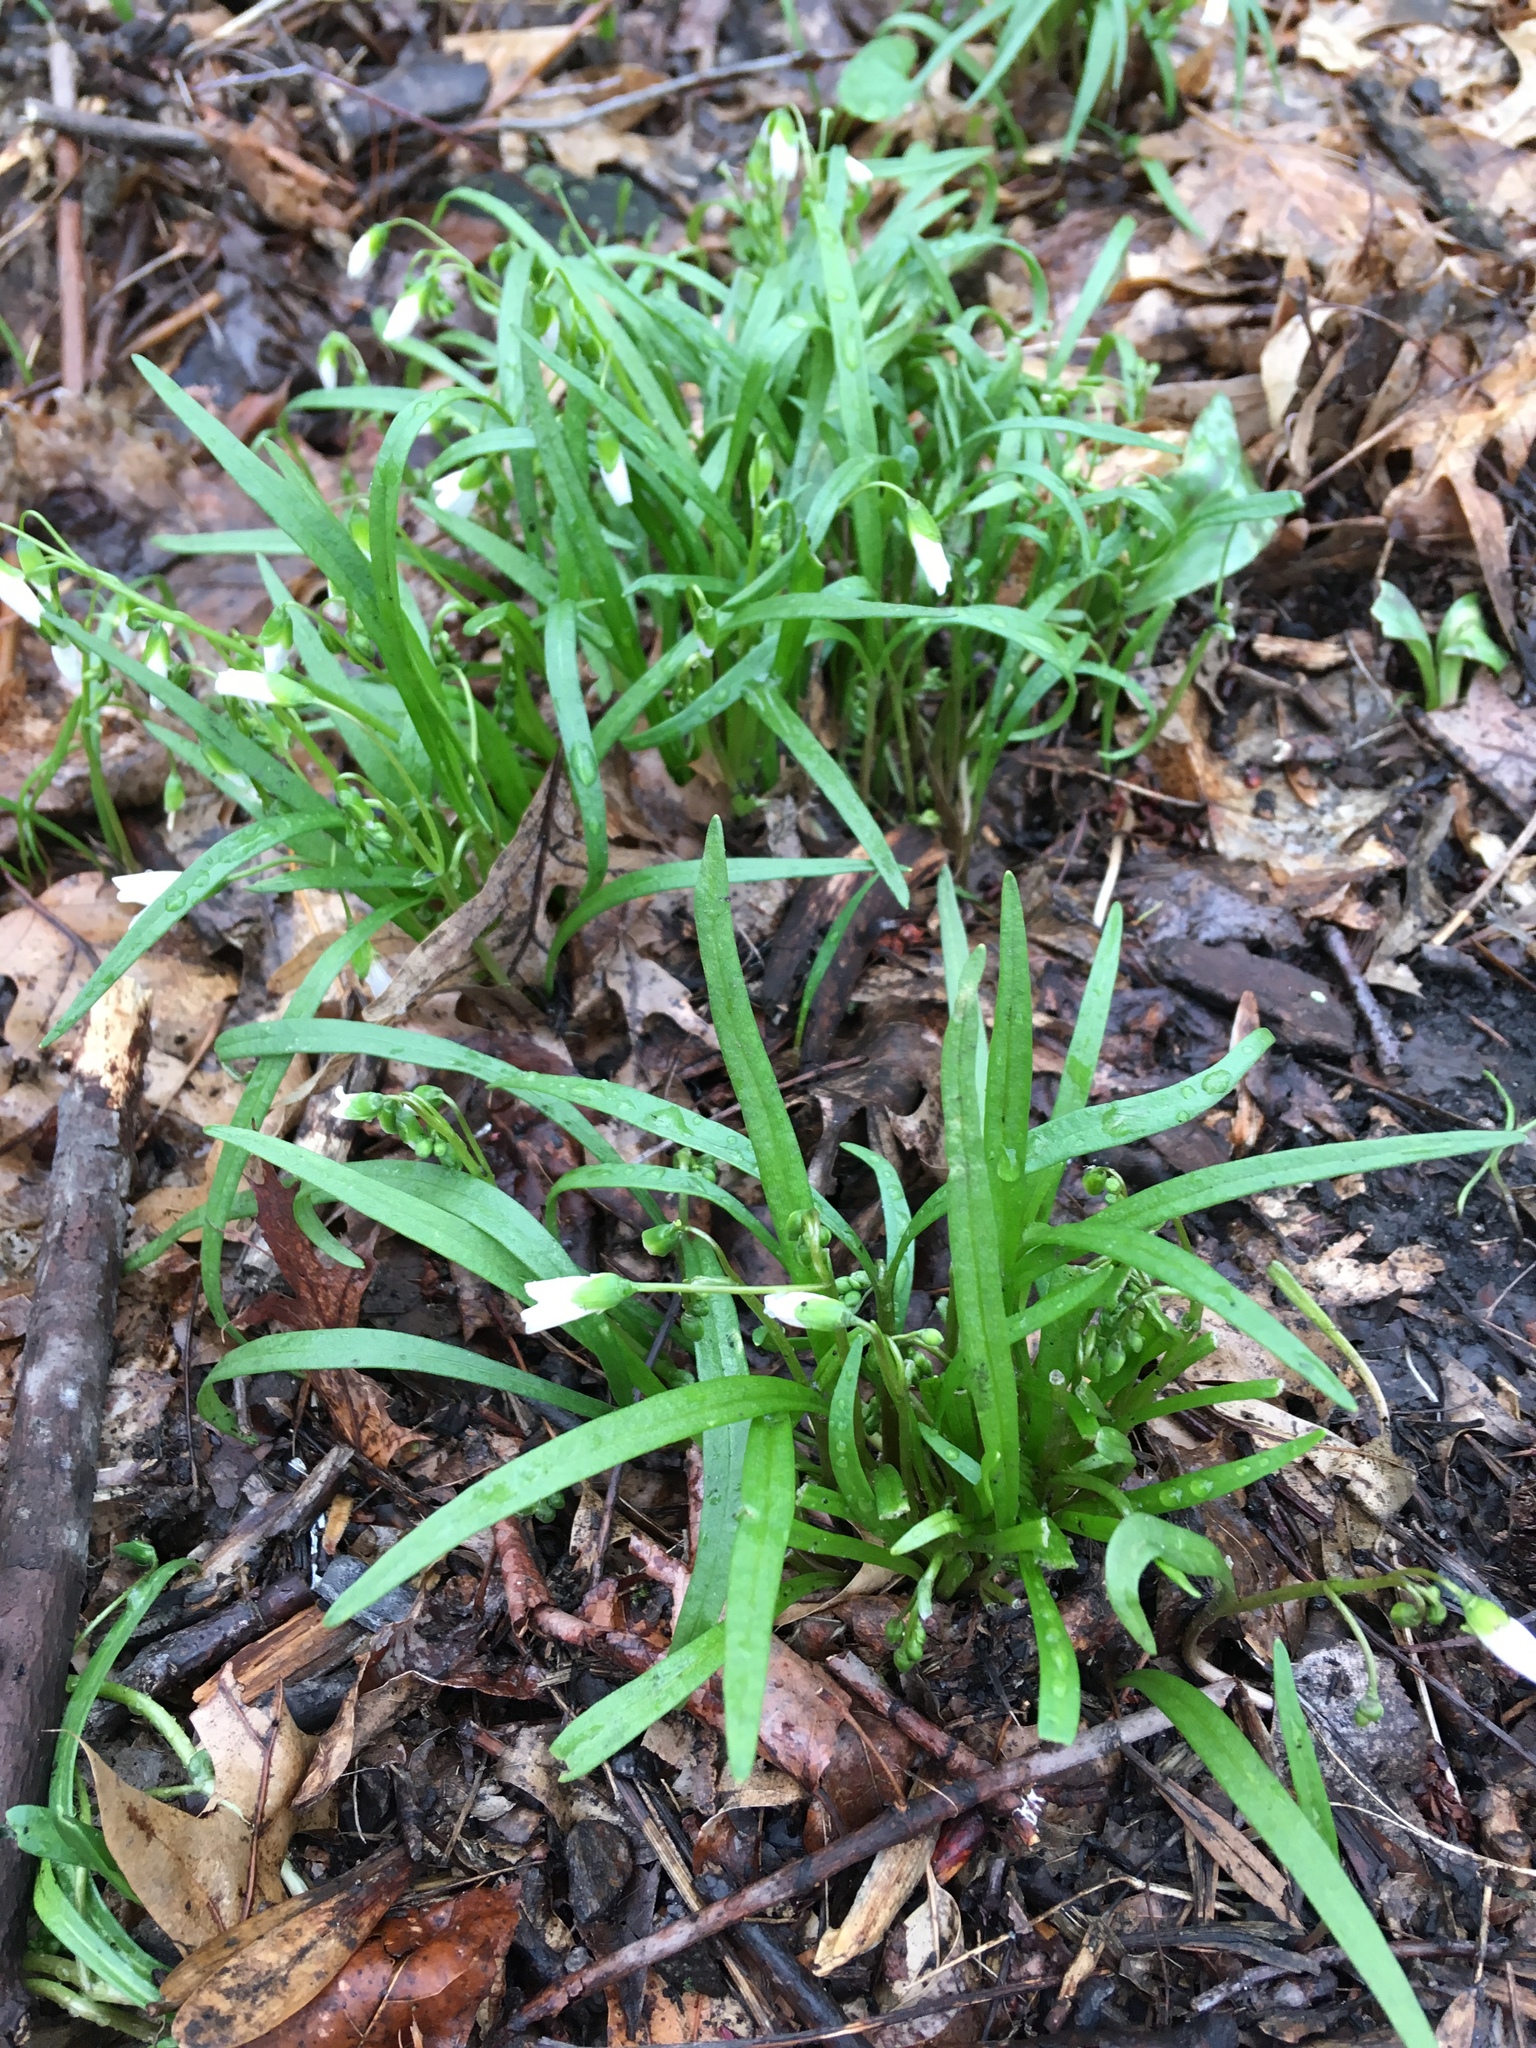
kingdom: Plantae
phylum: Tracheophyta
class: Magnoliopsida
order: Caryophyllales
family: Montiaceae
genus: Claytonia
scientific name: Claytonia virginica
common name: Virginia springbeauty
